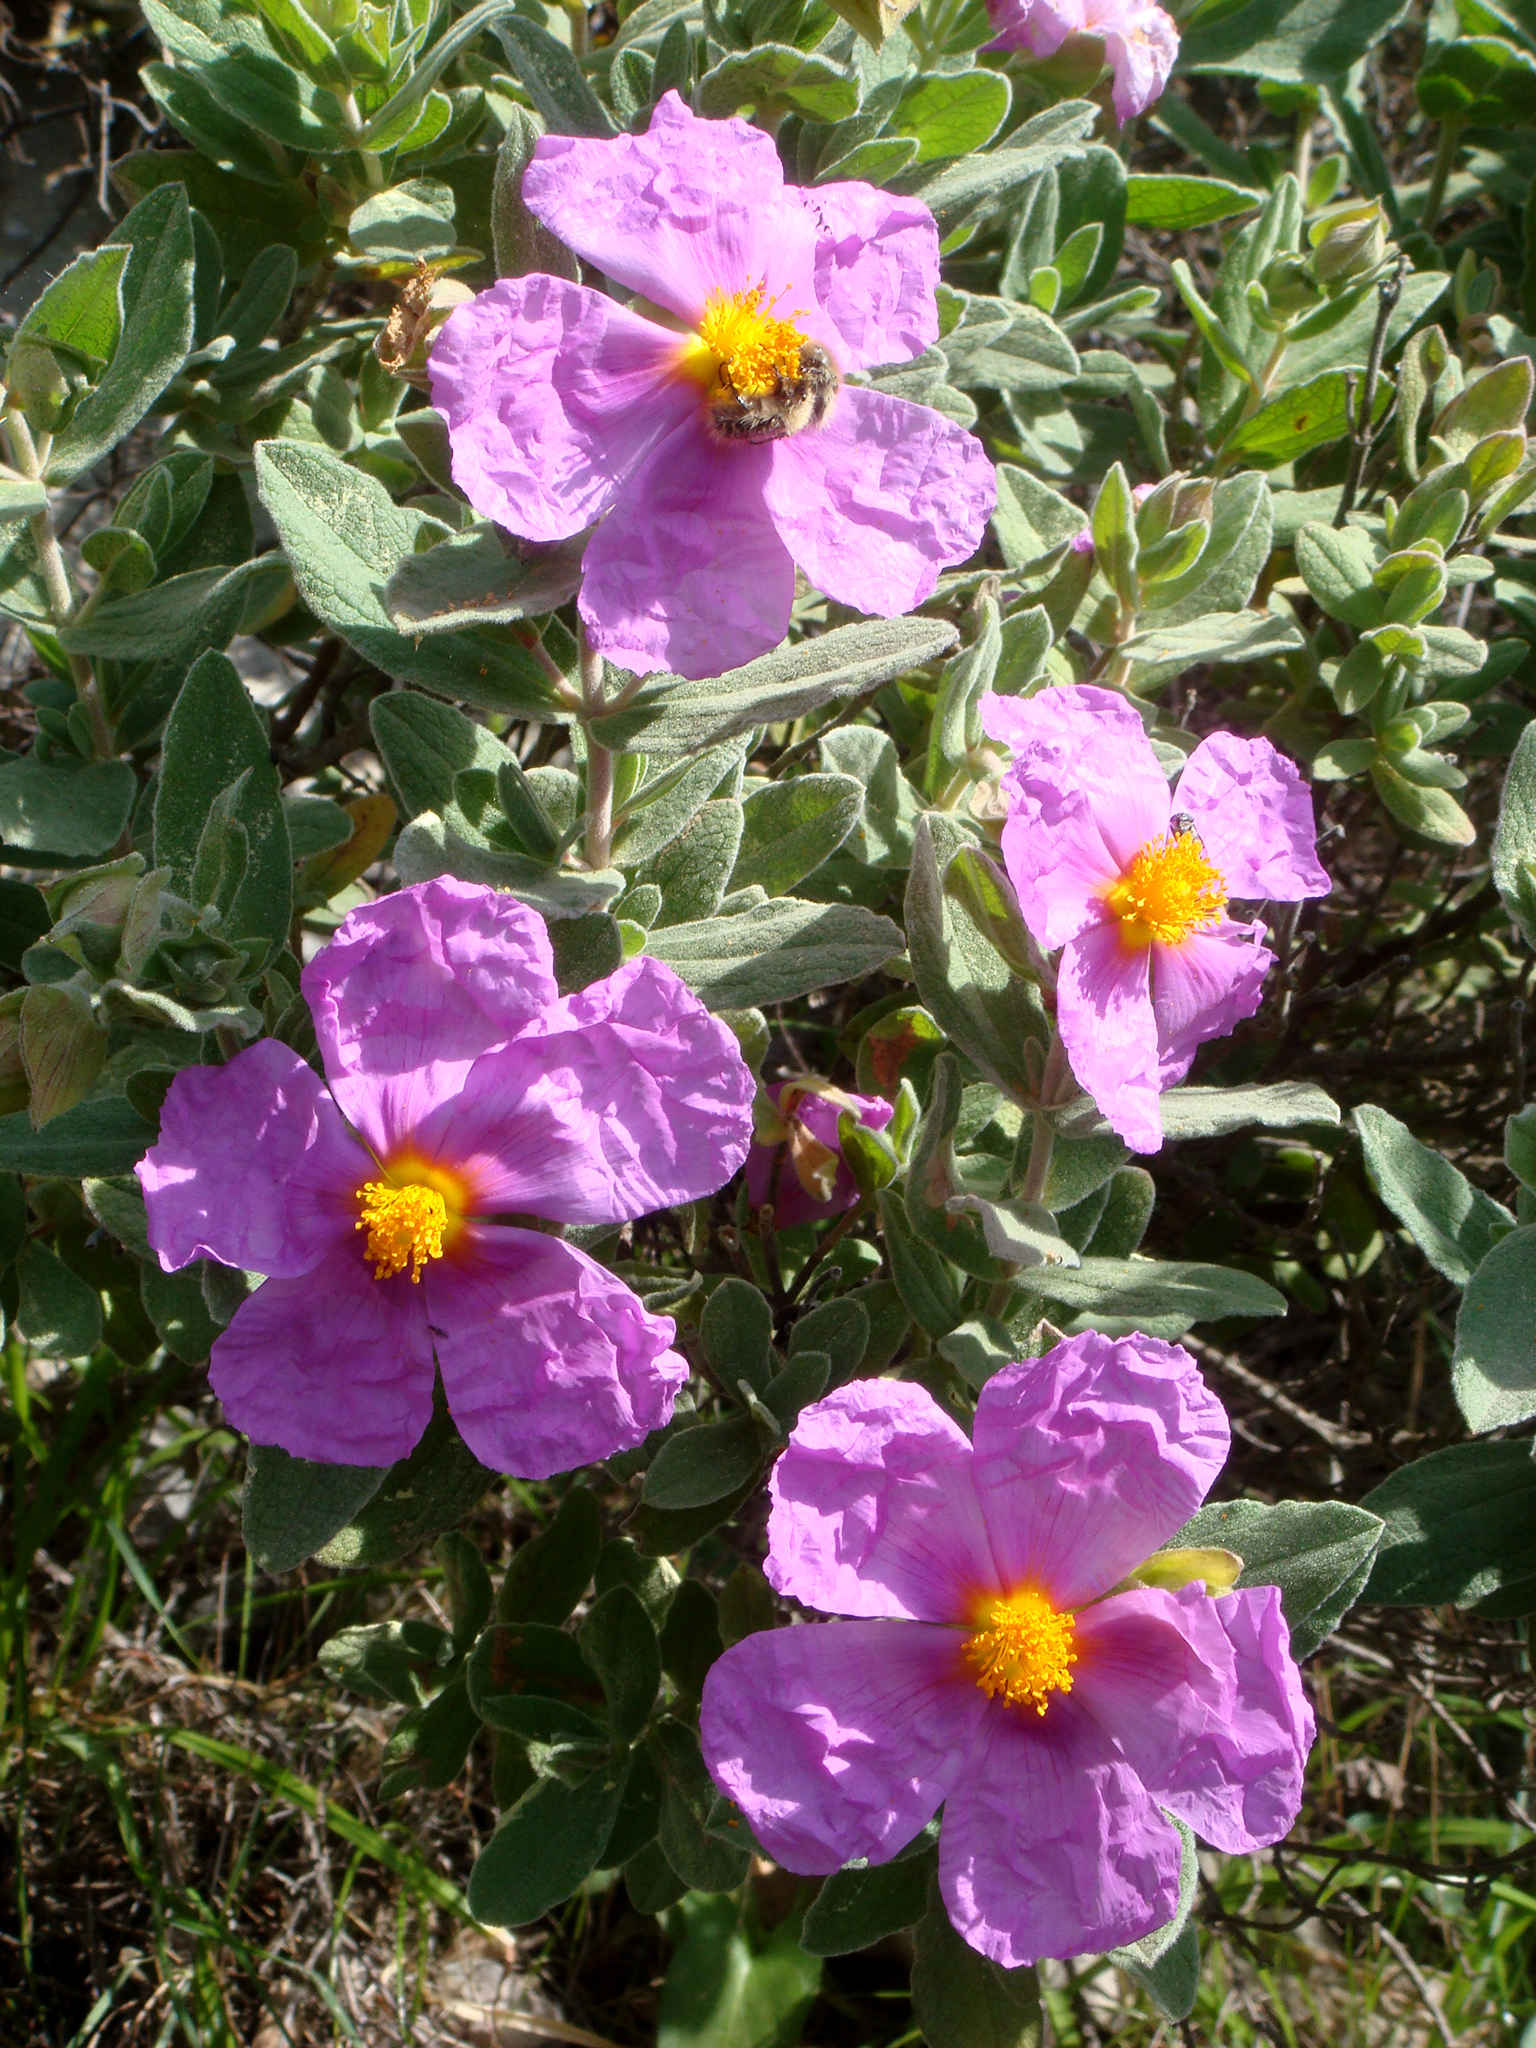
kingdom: Plantae
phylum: Tracheophyta
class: Magnoliopsida
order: Malvales
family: Cistaceae
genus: Cistus
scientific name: Cistus albidus
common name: White-leaf rock-rose
